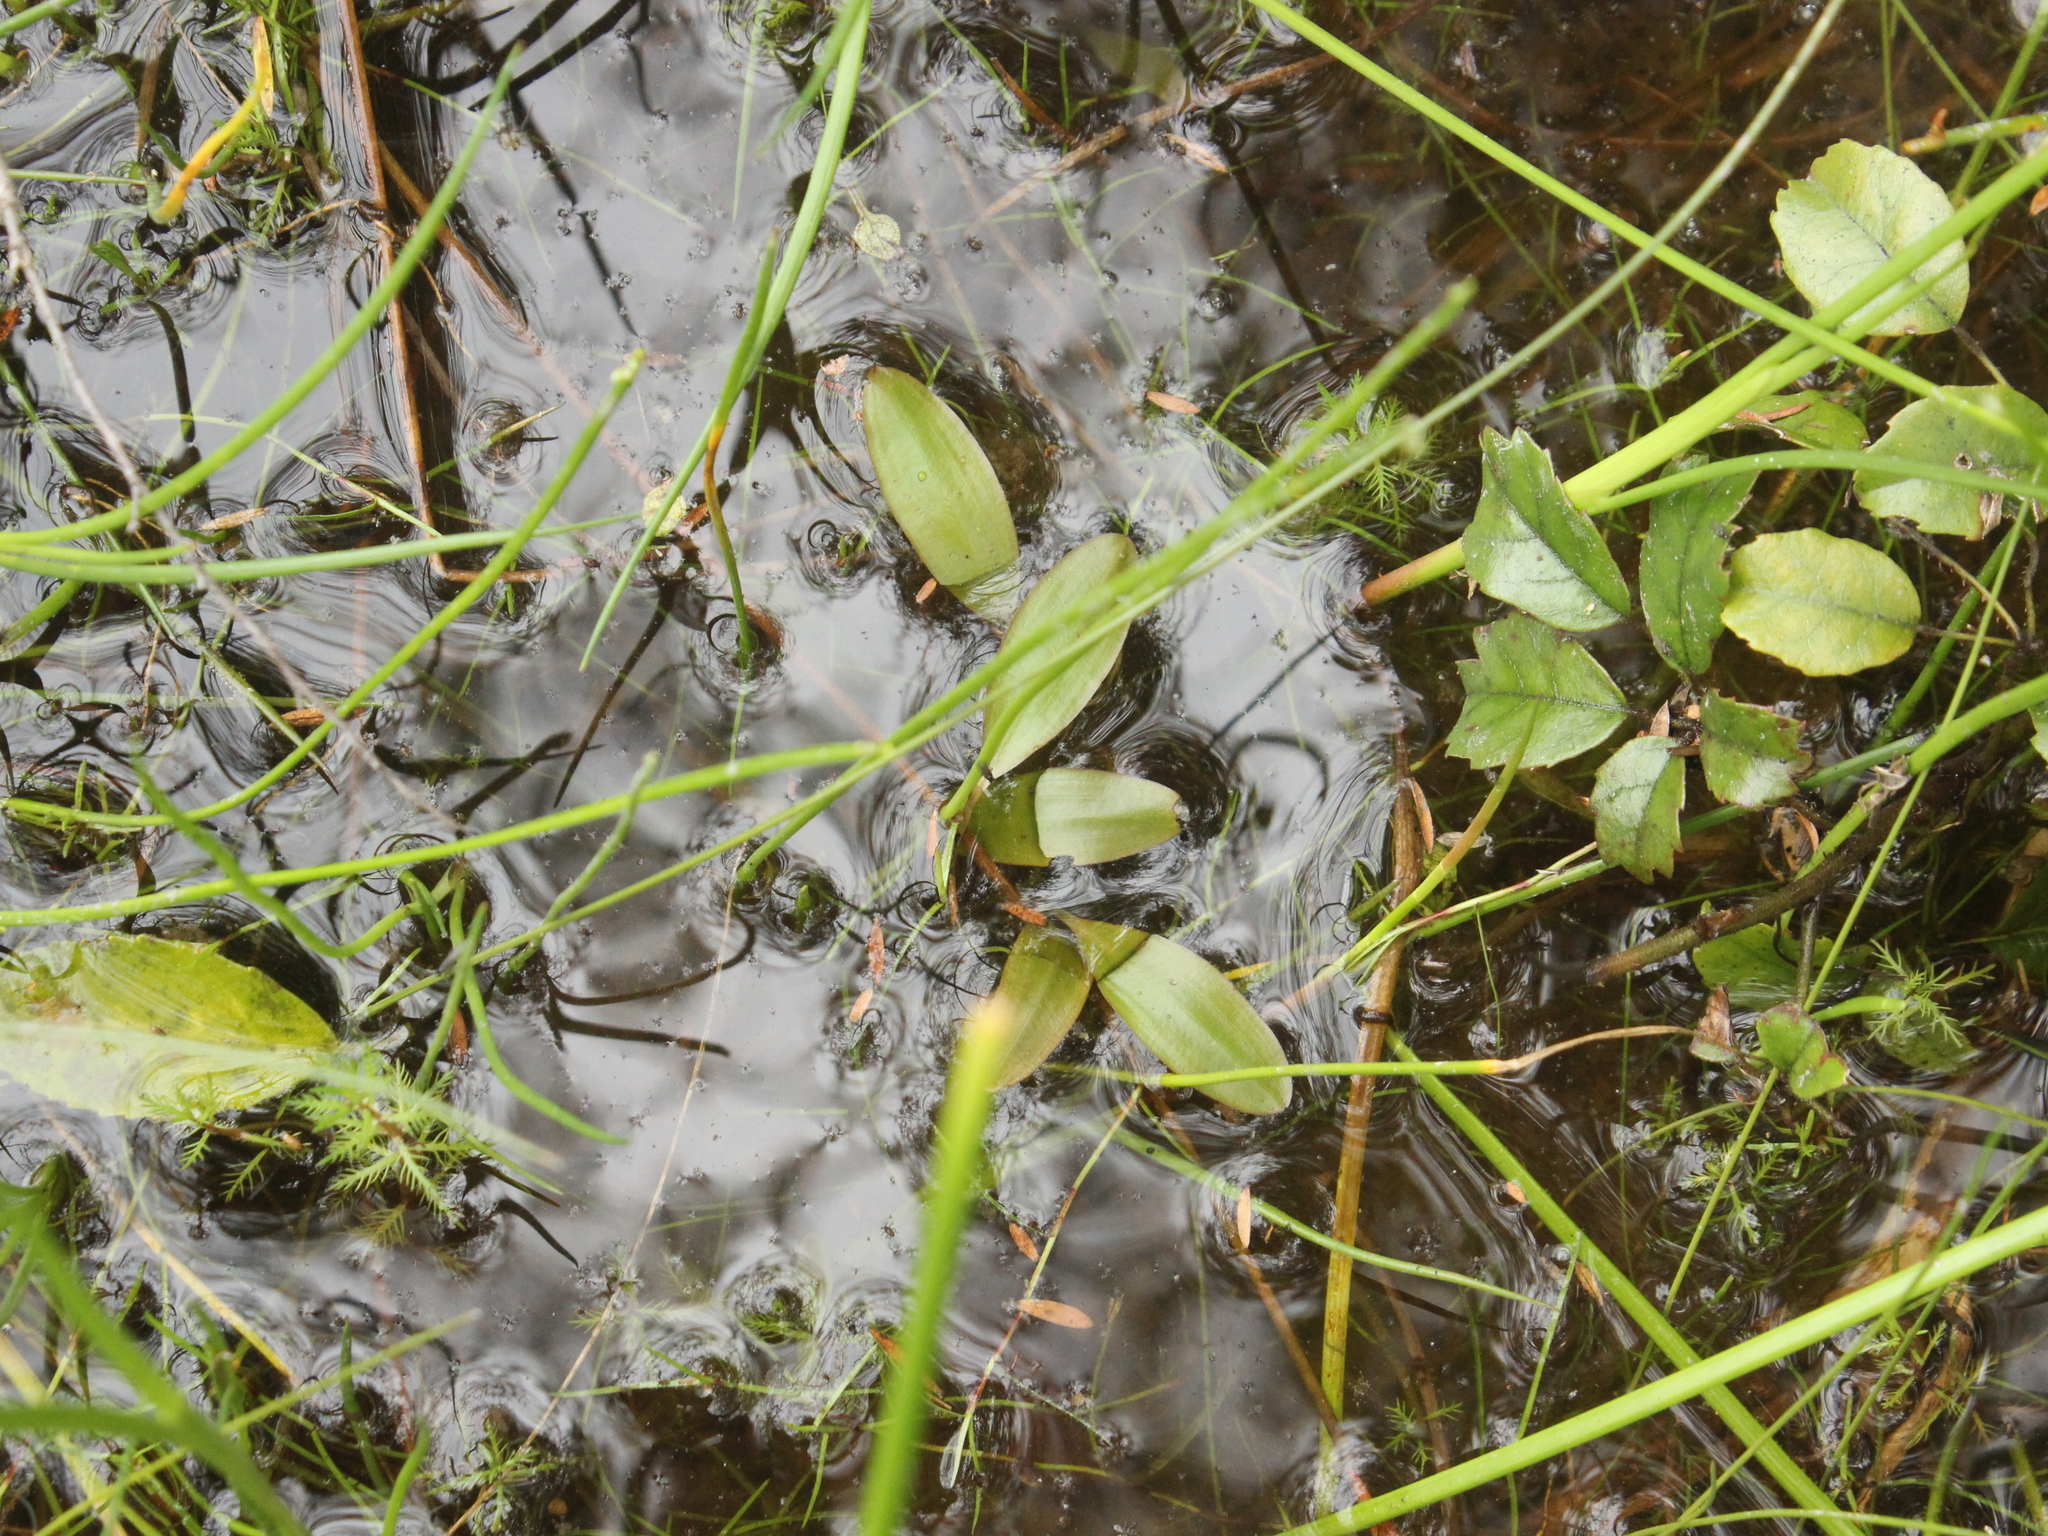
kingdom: Plantae
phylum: Tracheophyta
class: Liliopsida
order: Alismatales
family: Potamogetonaceae
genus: Potamogeton
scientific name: Potamogeton cheesemanii
